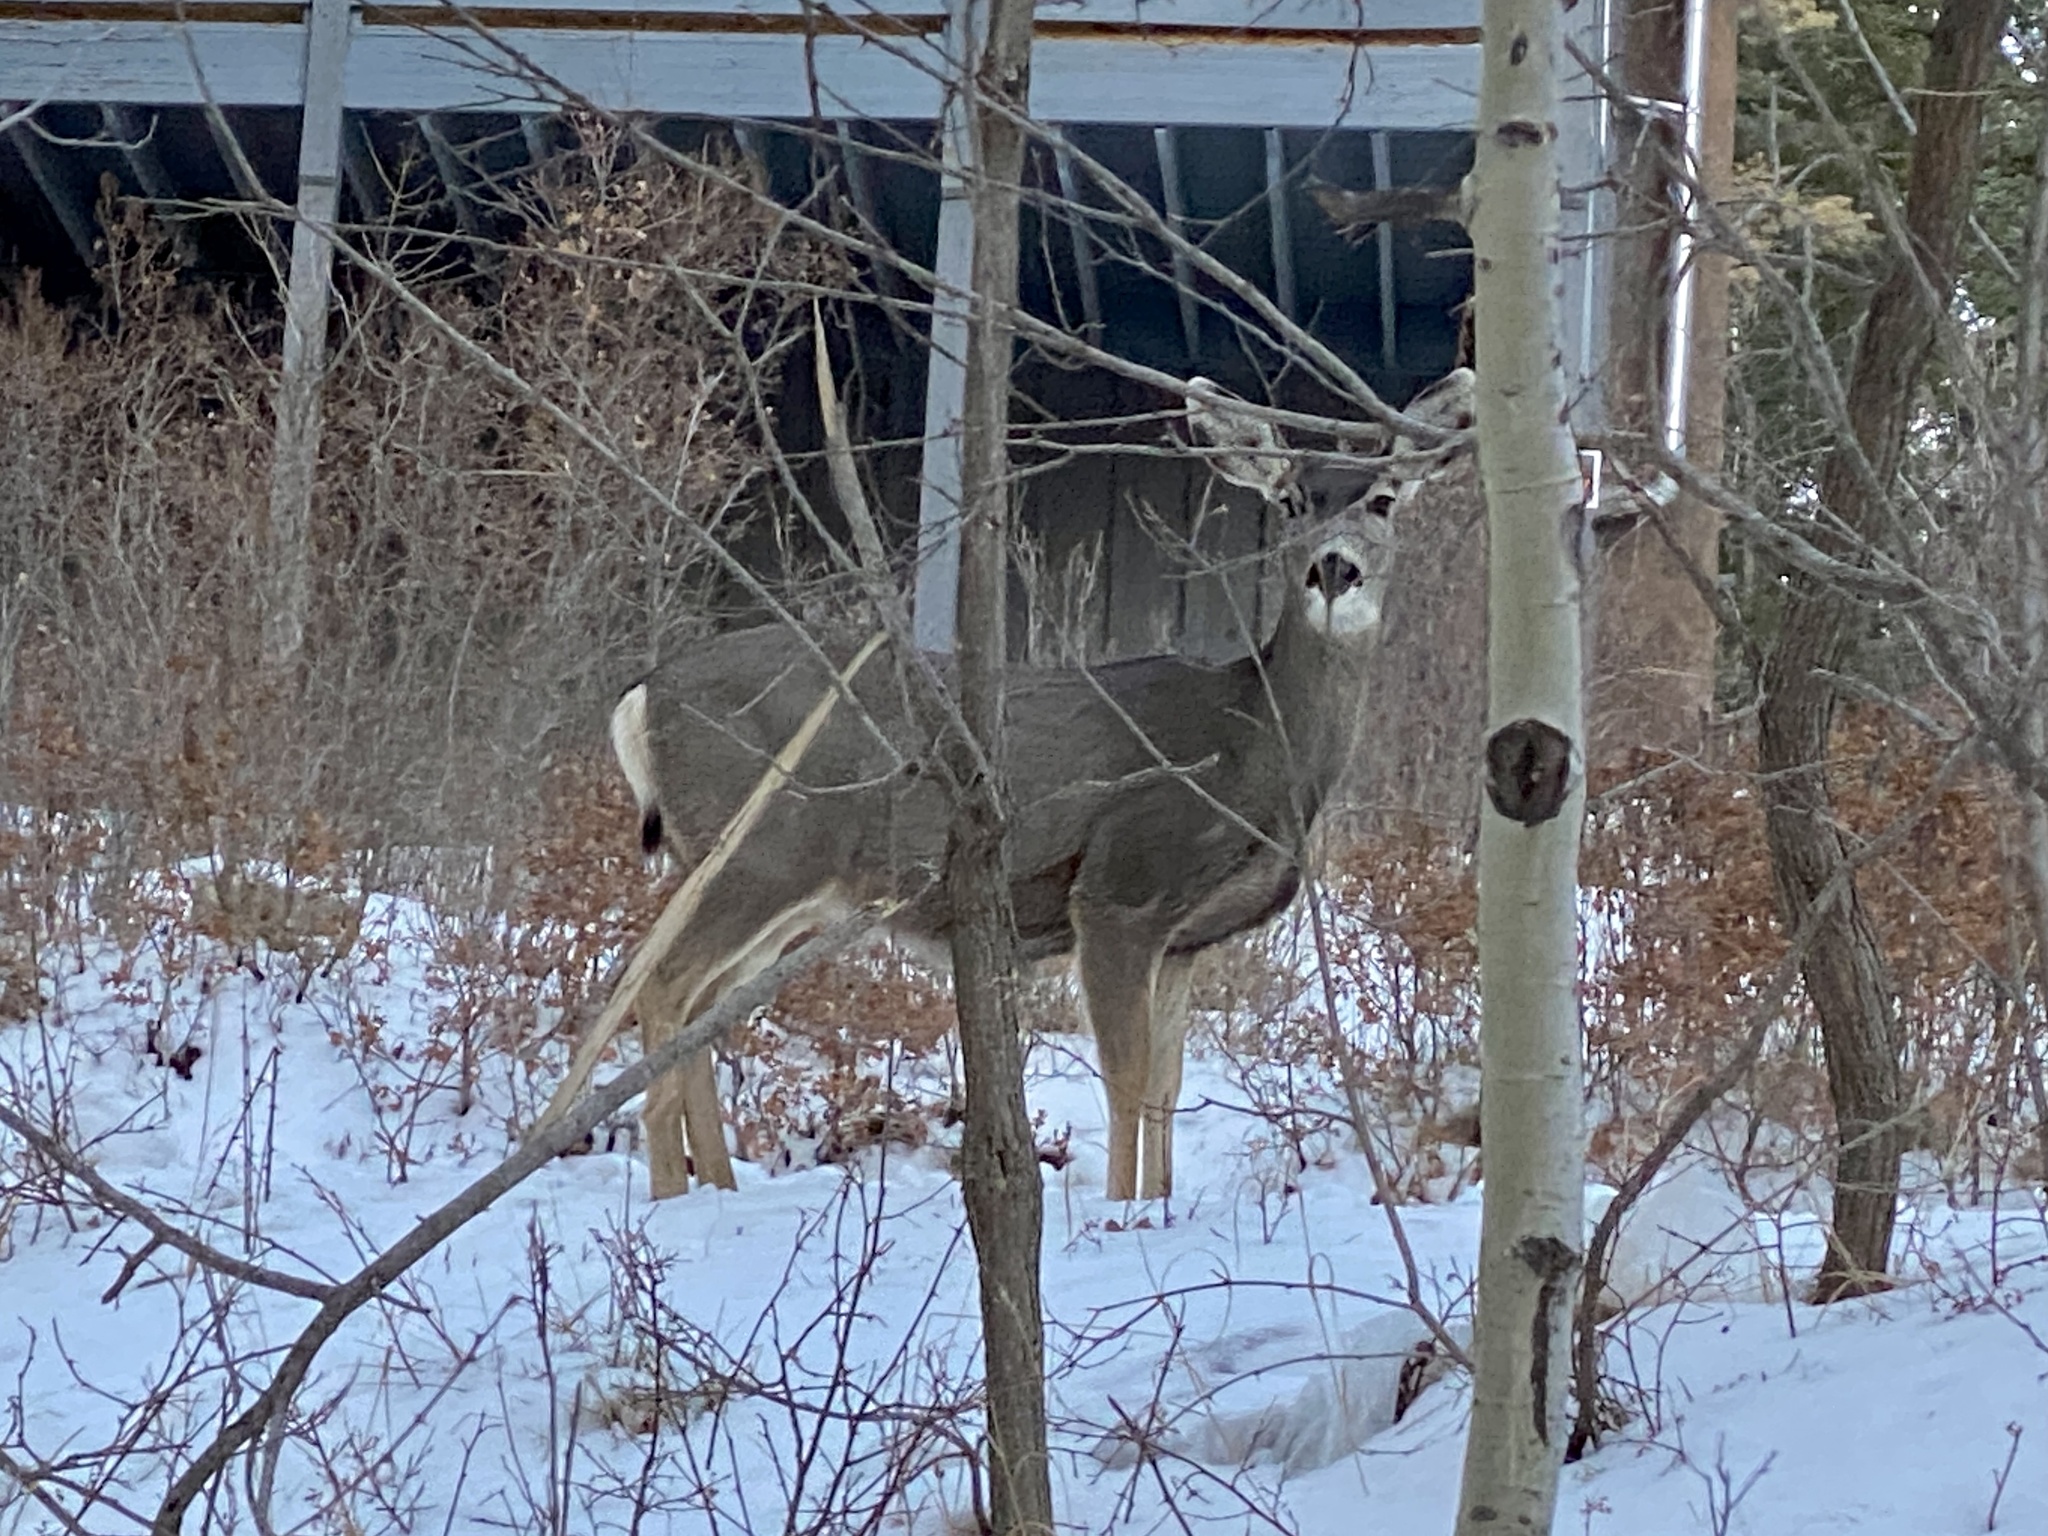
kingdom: Animalia
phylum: Chordata
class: Mammalia
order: Artiodactyla
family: Cervidae
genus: Odocoileus
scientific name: Odocoileus hemionus
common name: Mule deer
